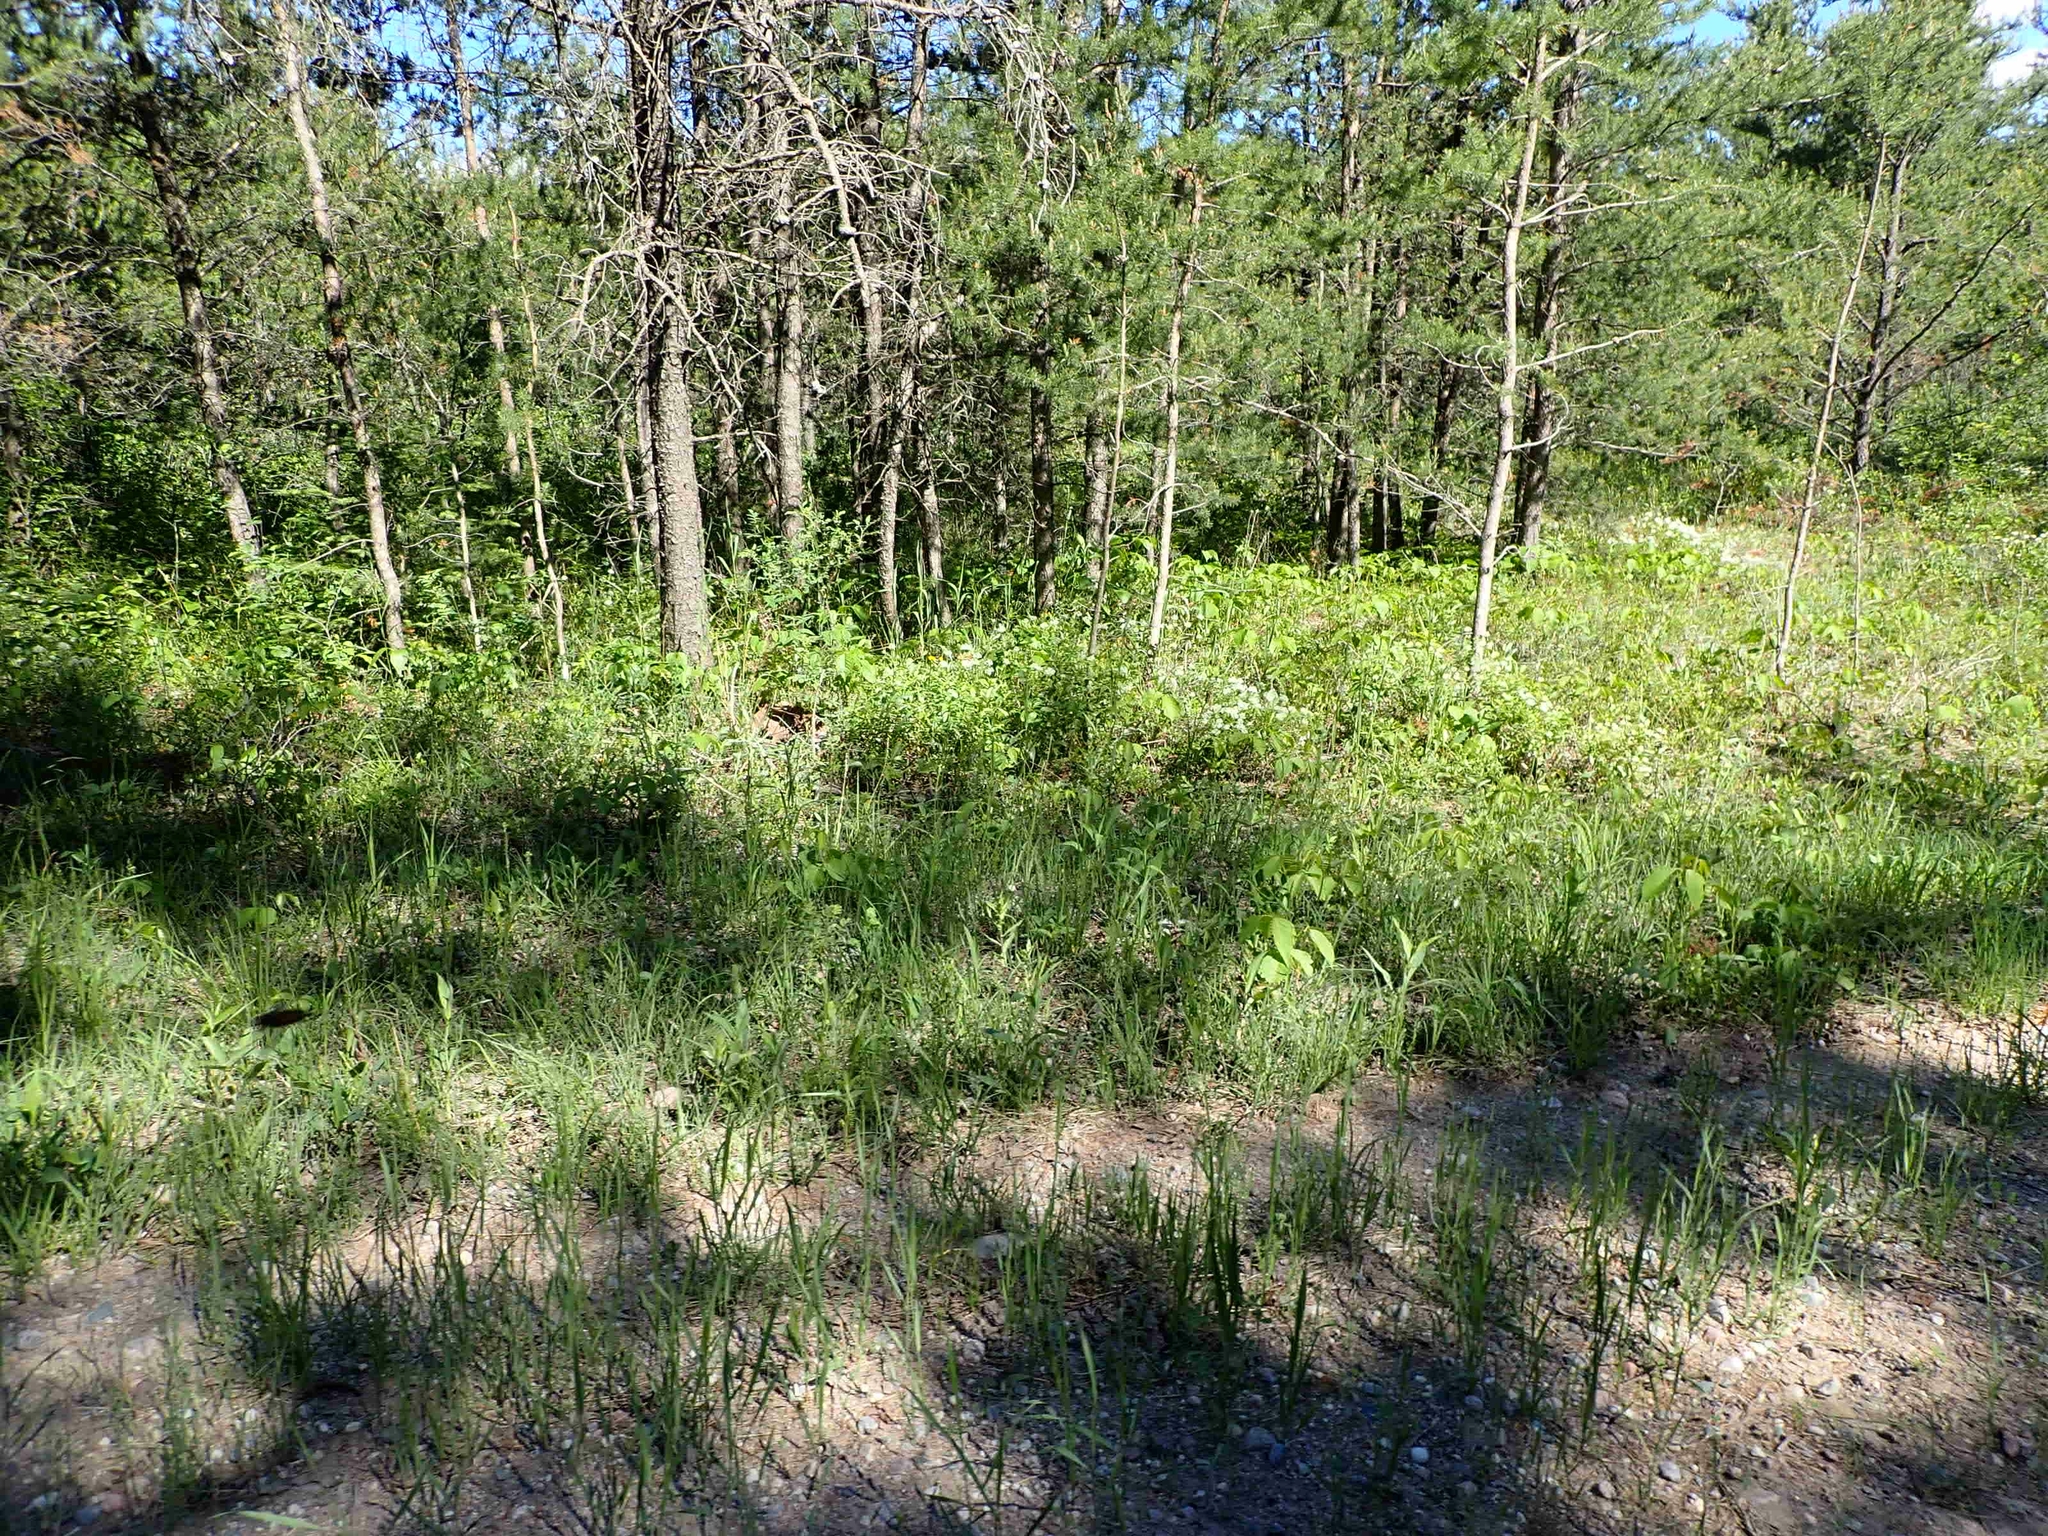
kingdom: Plantae
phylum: Tracheophyta
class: Magnoliopsida
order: Rosales
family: Rhamnaceae
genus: Ceanothus
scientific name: Ceanothus herbaceus
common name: Inland ceanothus
